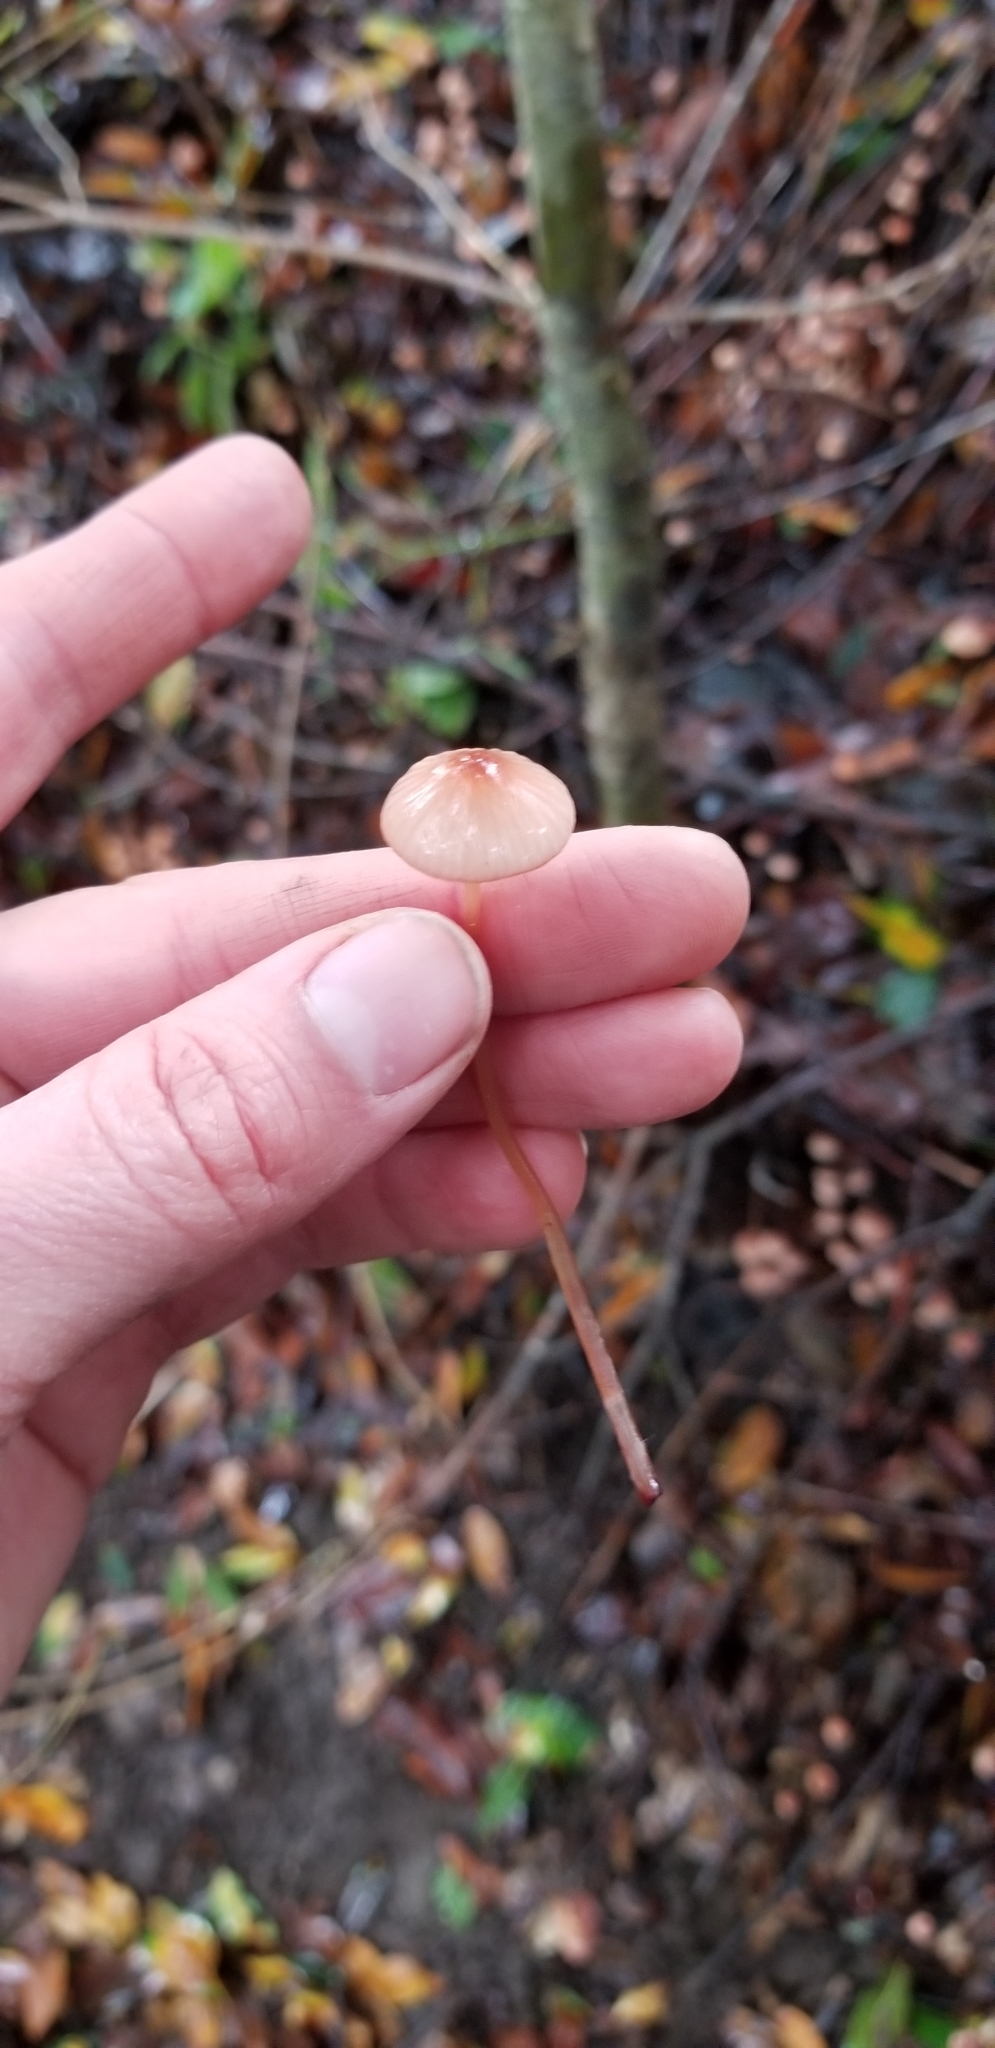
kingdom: Fungi
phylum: Basidiomycota
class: Agaricomycetes
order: Agaricales
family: Mycenaceae
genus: Mycena
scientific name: Mycena
